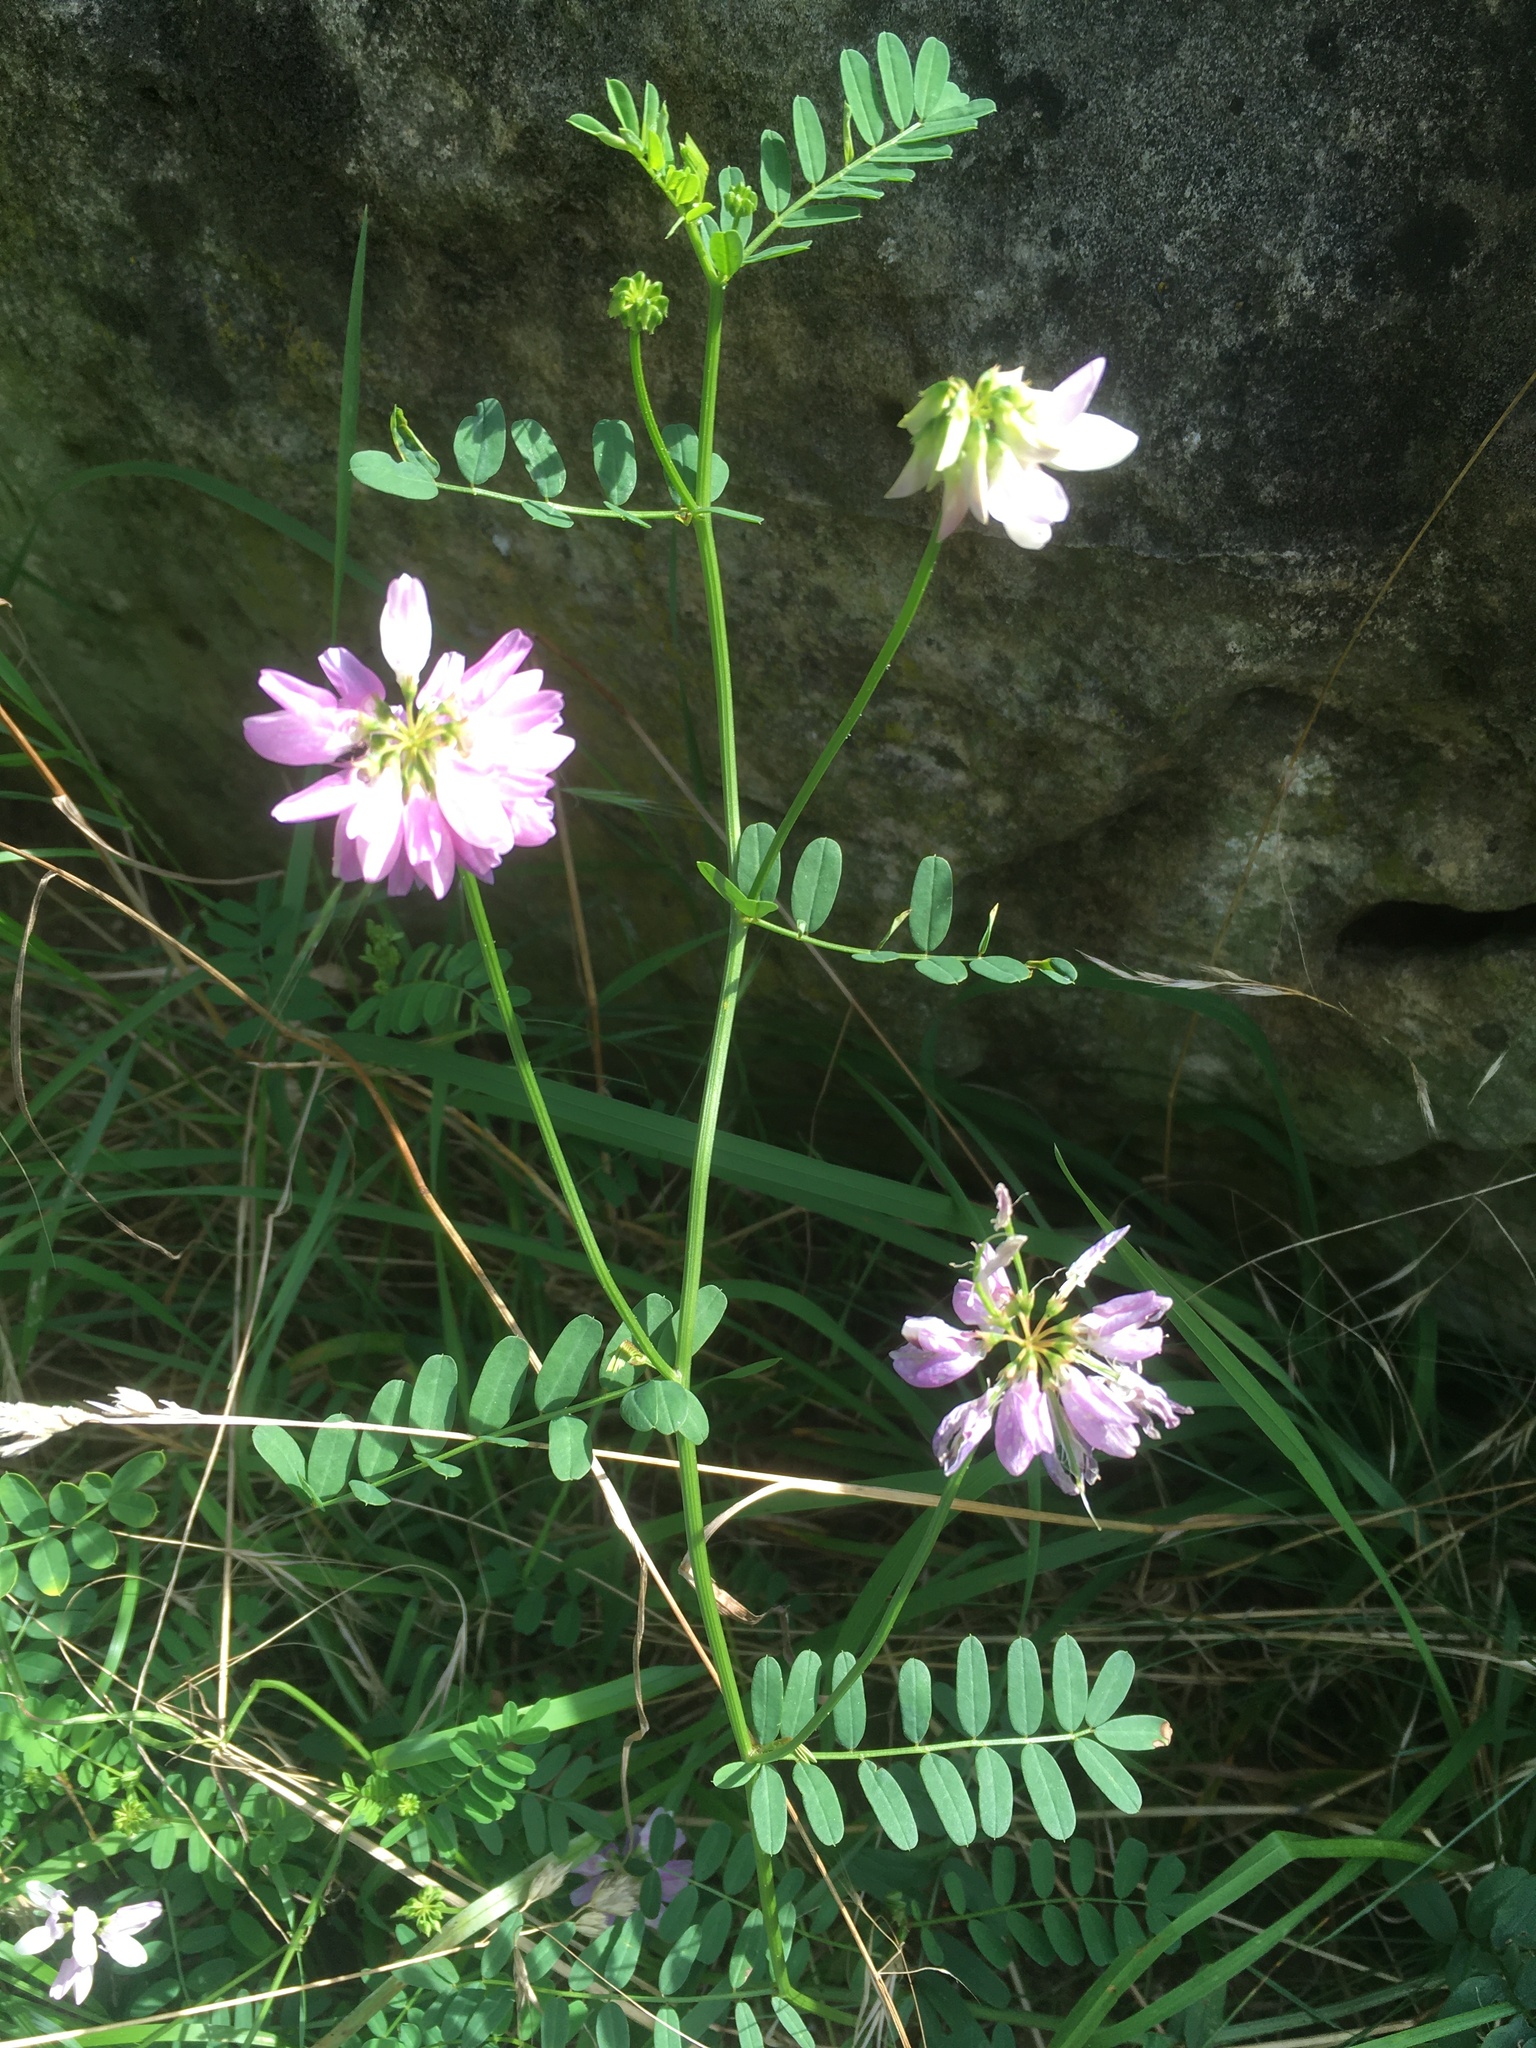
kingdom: Plantae
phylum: Tracheophyta
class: Magnoliopsida
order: Fabales
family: Fabaceae
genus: Coronilla
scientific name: Coronilla varia
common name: Crownvetch
